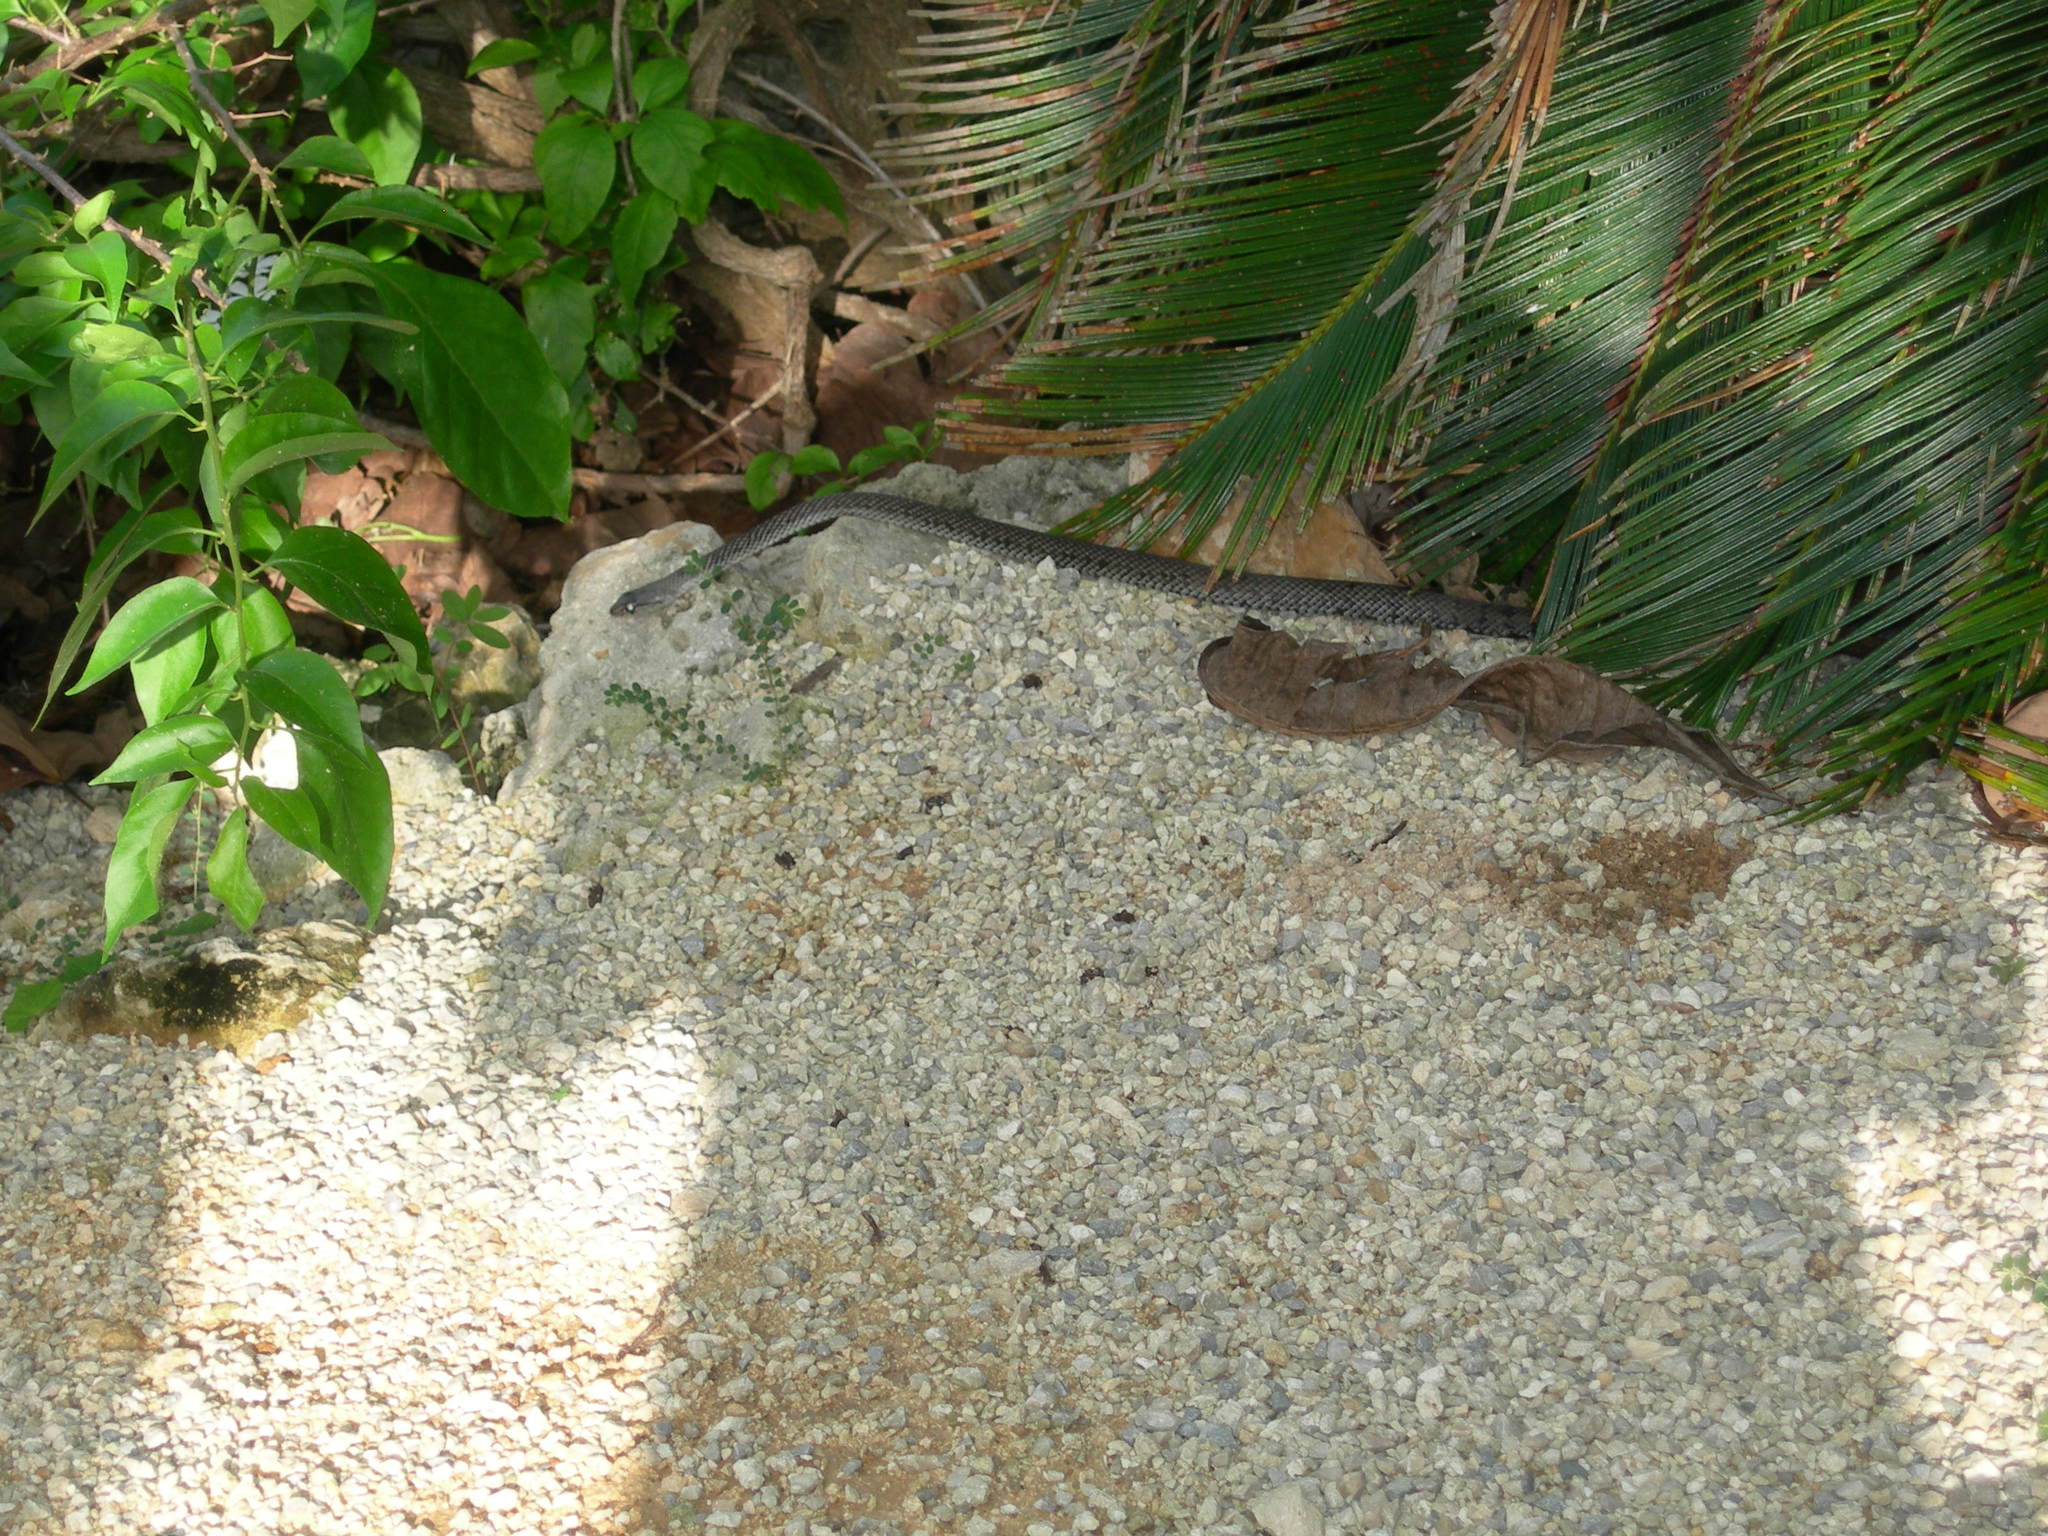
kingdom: Animalia
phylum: Chordata
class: Squamata
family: Colubridae
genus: Cubophis
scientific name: Cubophis caymanus
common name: Black snake
